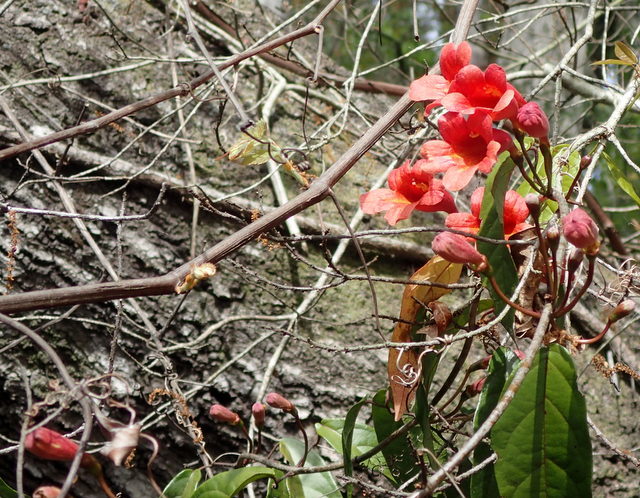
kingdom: Plantae
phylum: Tracheophyta
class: Magnoliopsida
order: Lamiales
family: Bignoniaceae
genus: Bignonia
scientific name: Bignonia capreolata
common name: Crossvine
